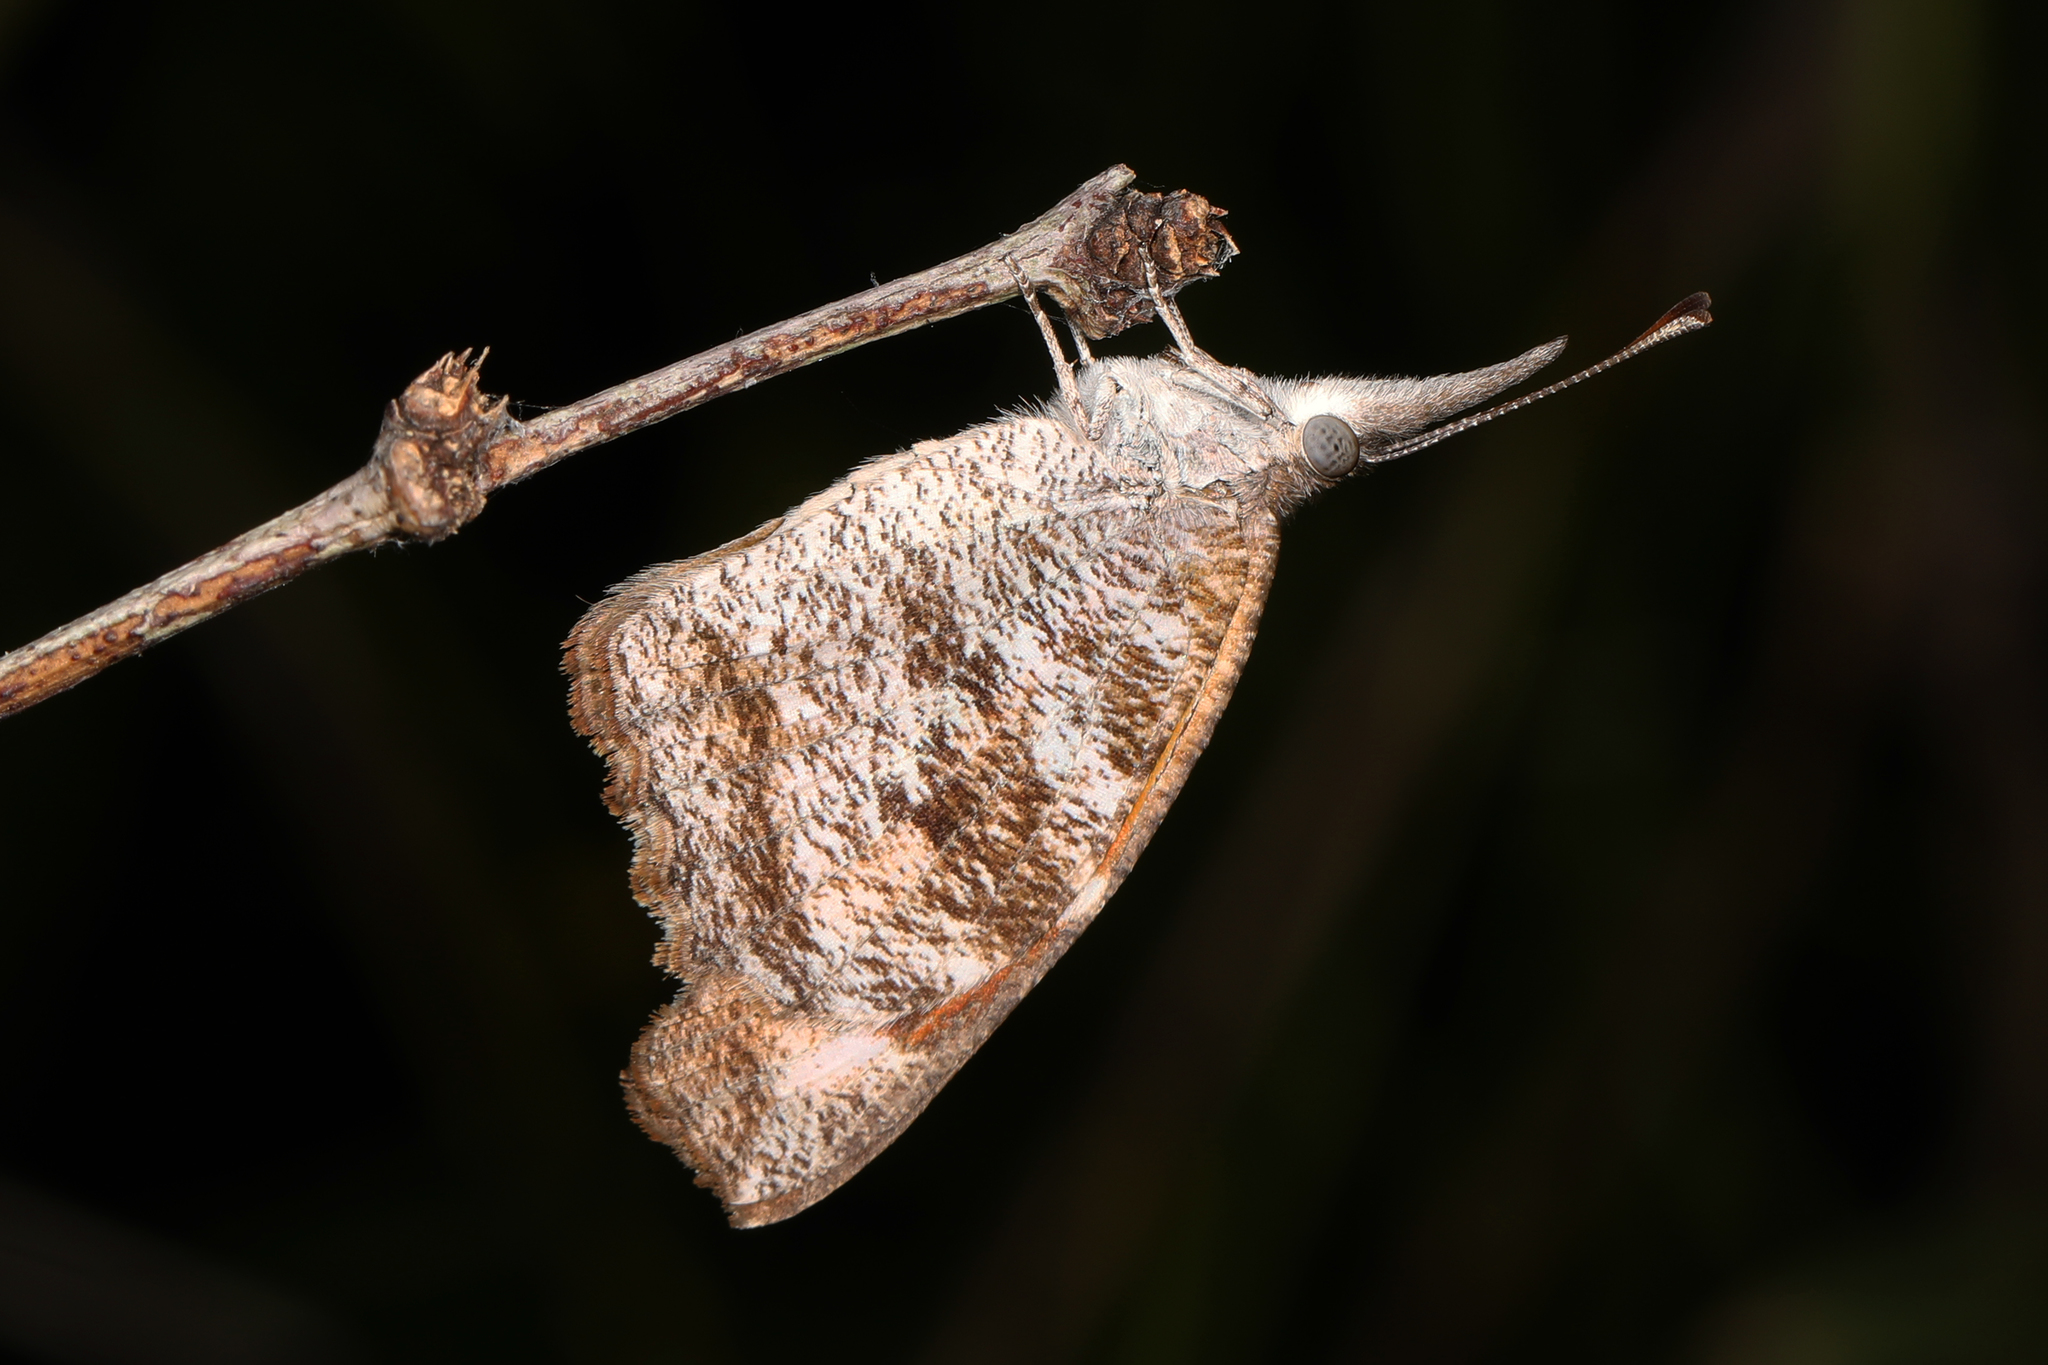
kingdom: Animalia
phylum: Arthropoda
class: Insecta
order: Lepidoptera
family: Nymphalidae
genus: Libytheana
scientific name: Libytheana carinenta
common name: American snout
